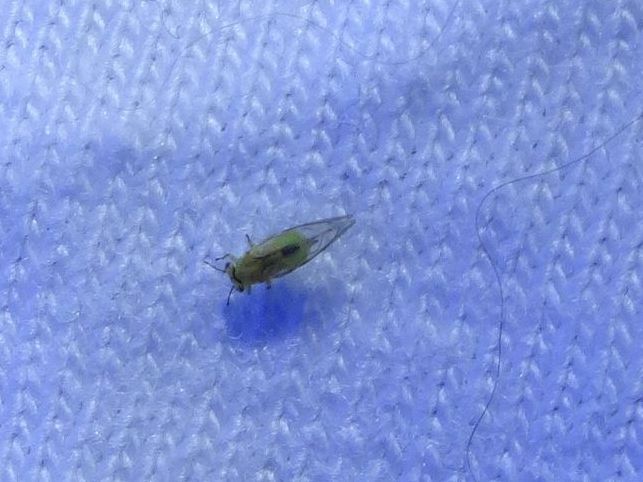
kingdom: Animalia
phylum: Arthropoda
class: Insecta
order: Hemiptera
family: Calophyidae
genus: Calophya
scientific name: Calophya schini
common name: Pepper tree psyllid
